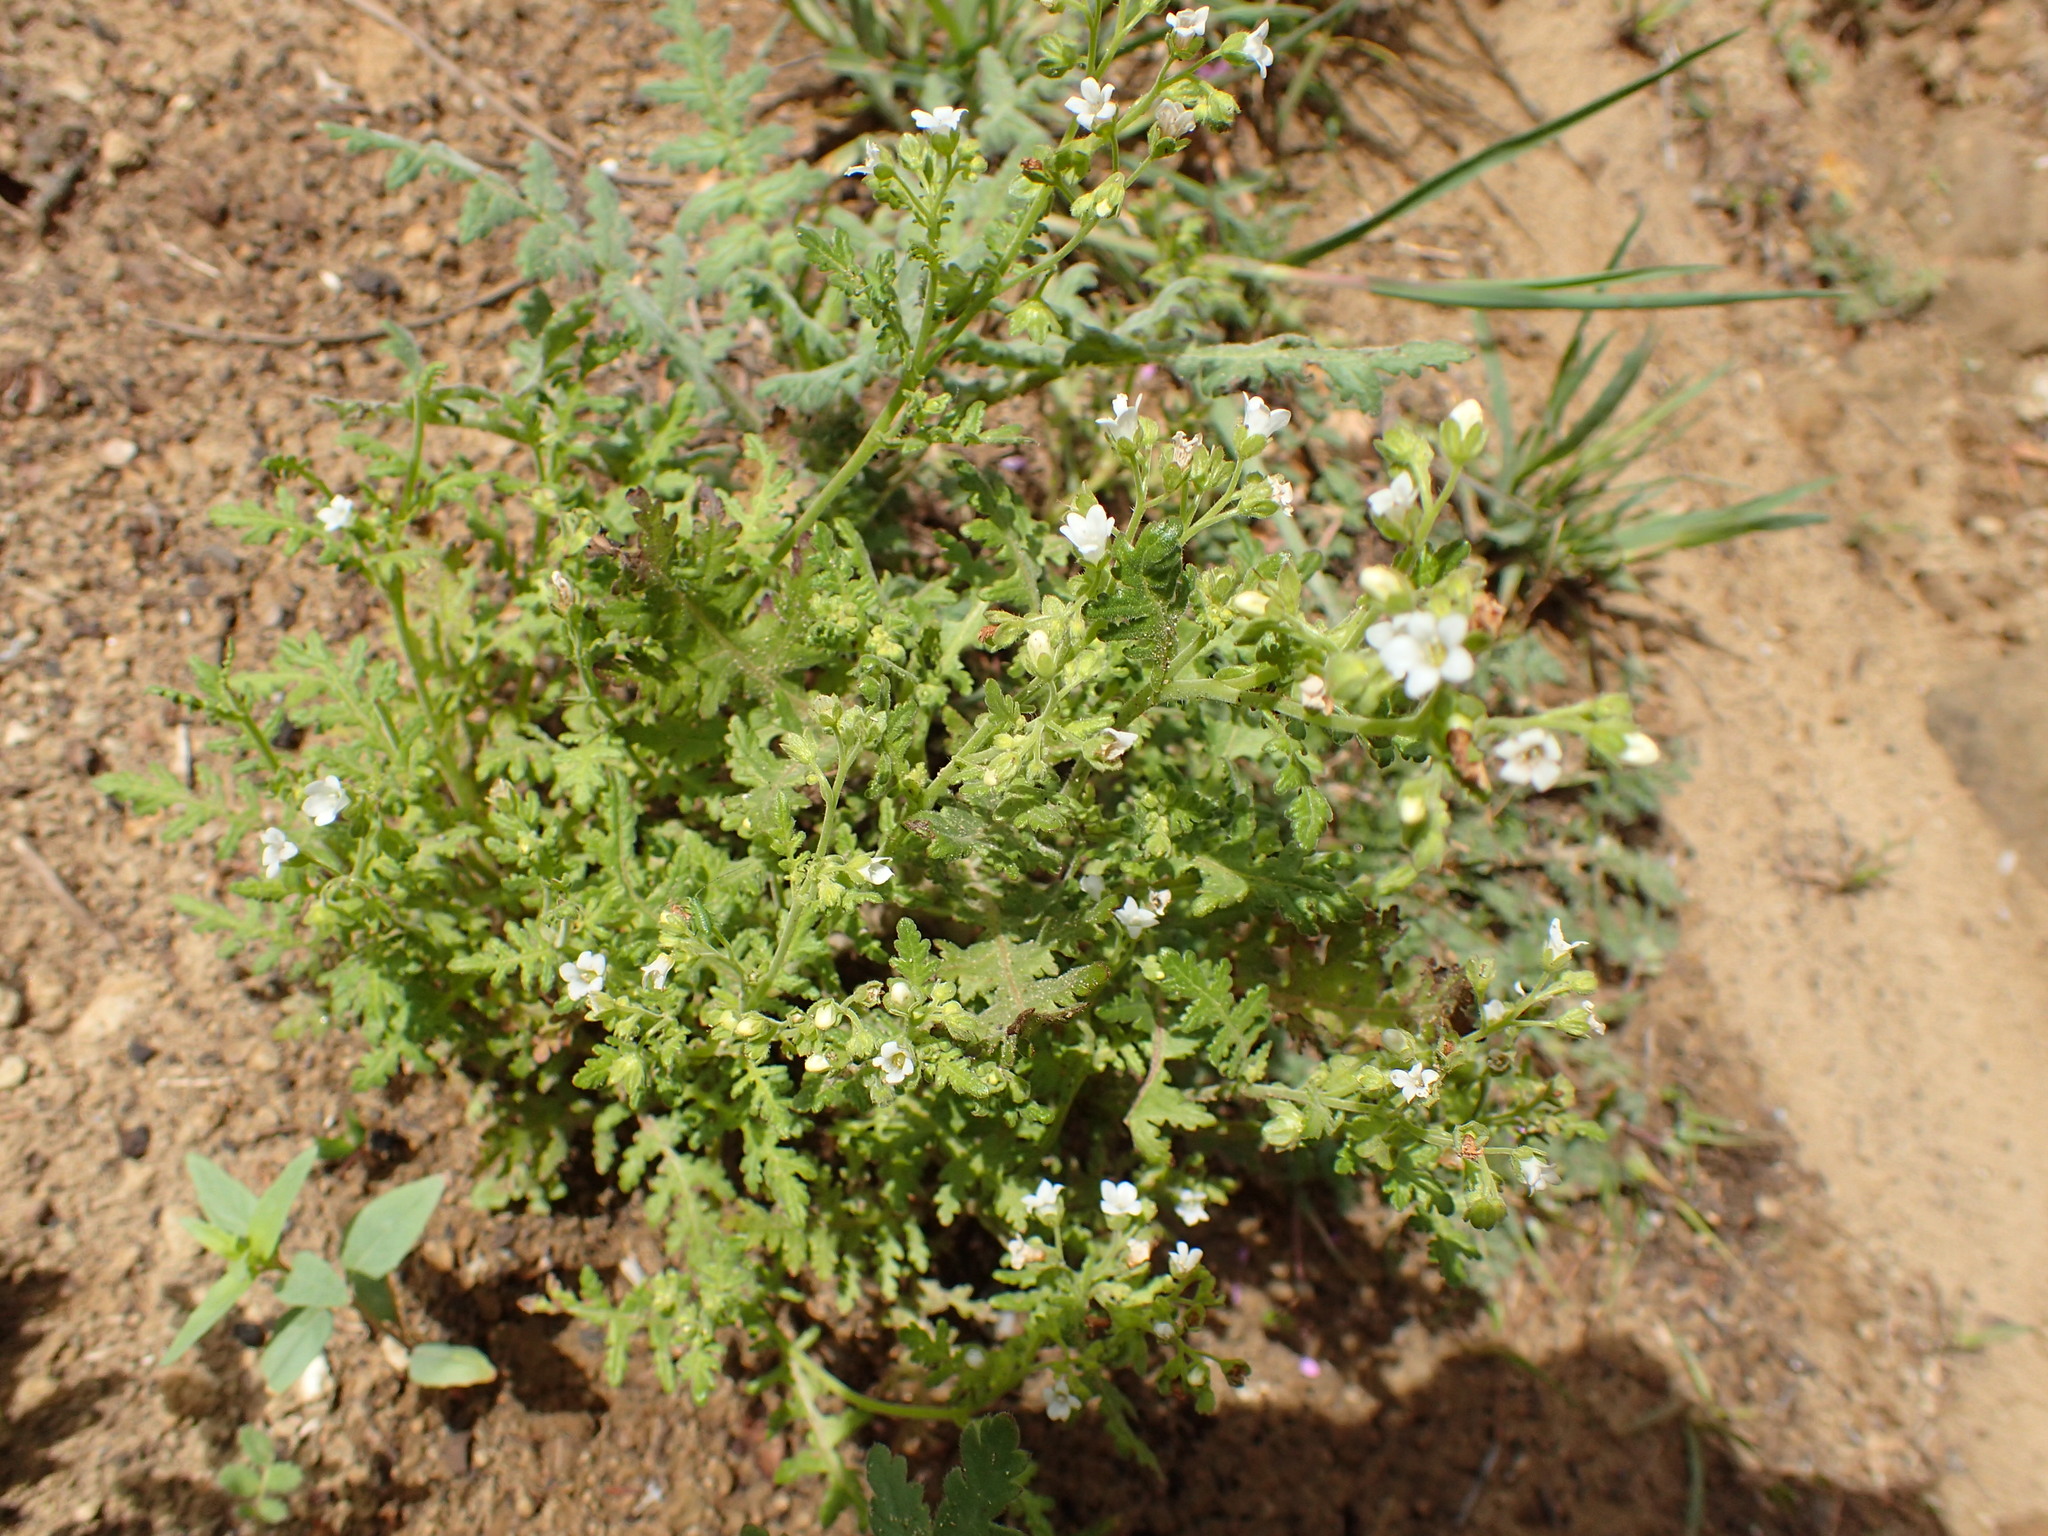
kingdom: Plantae
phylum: Tracheophyta
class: Magnoliopsida
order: Boraginales
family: Hydrophyllaceae
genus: Eucrypta
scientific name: Eucrypta chrysanthemifolia
